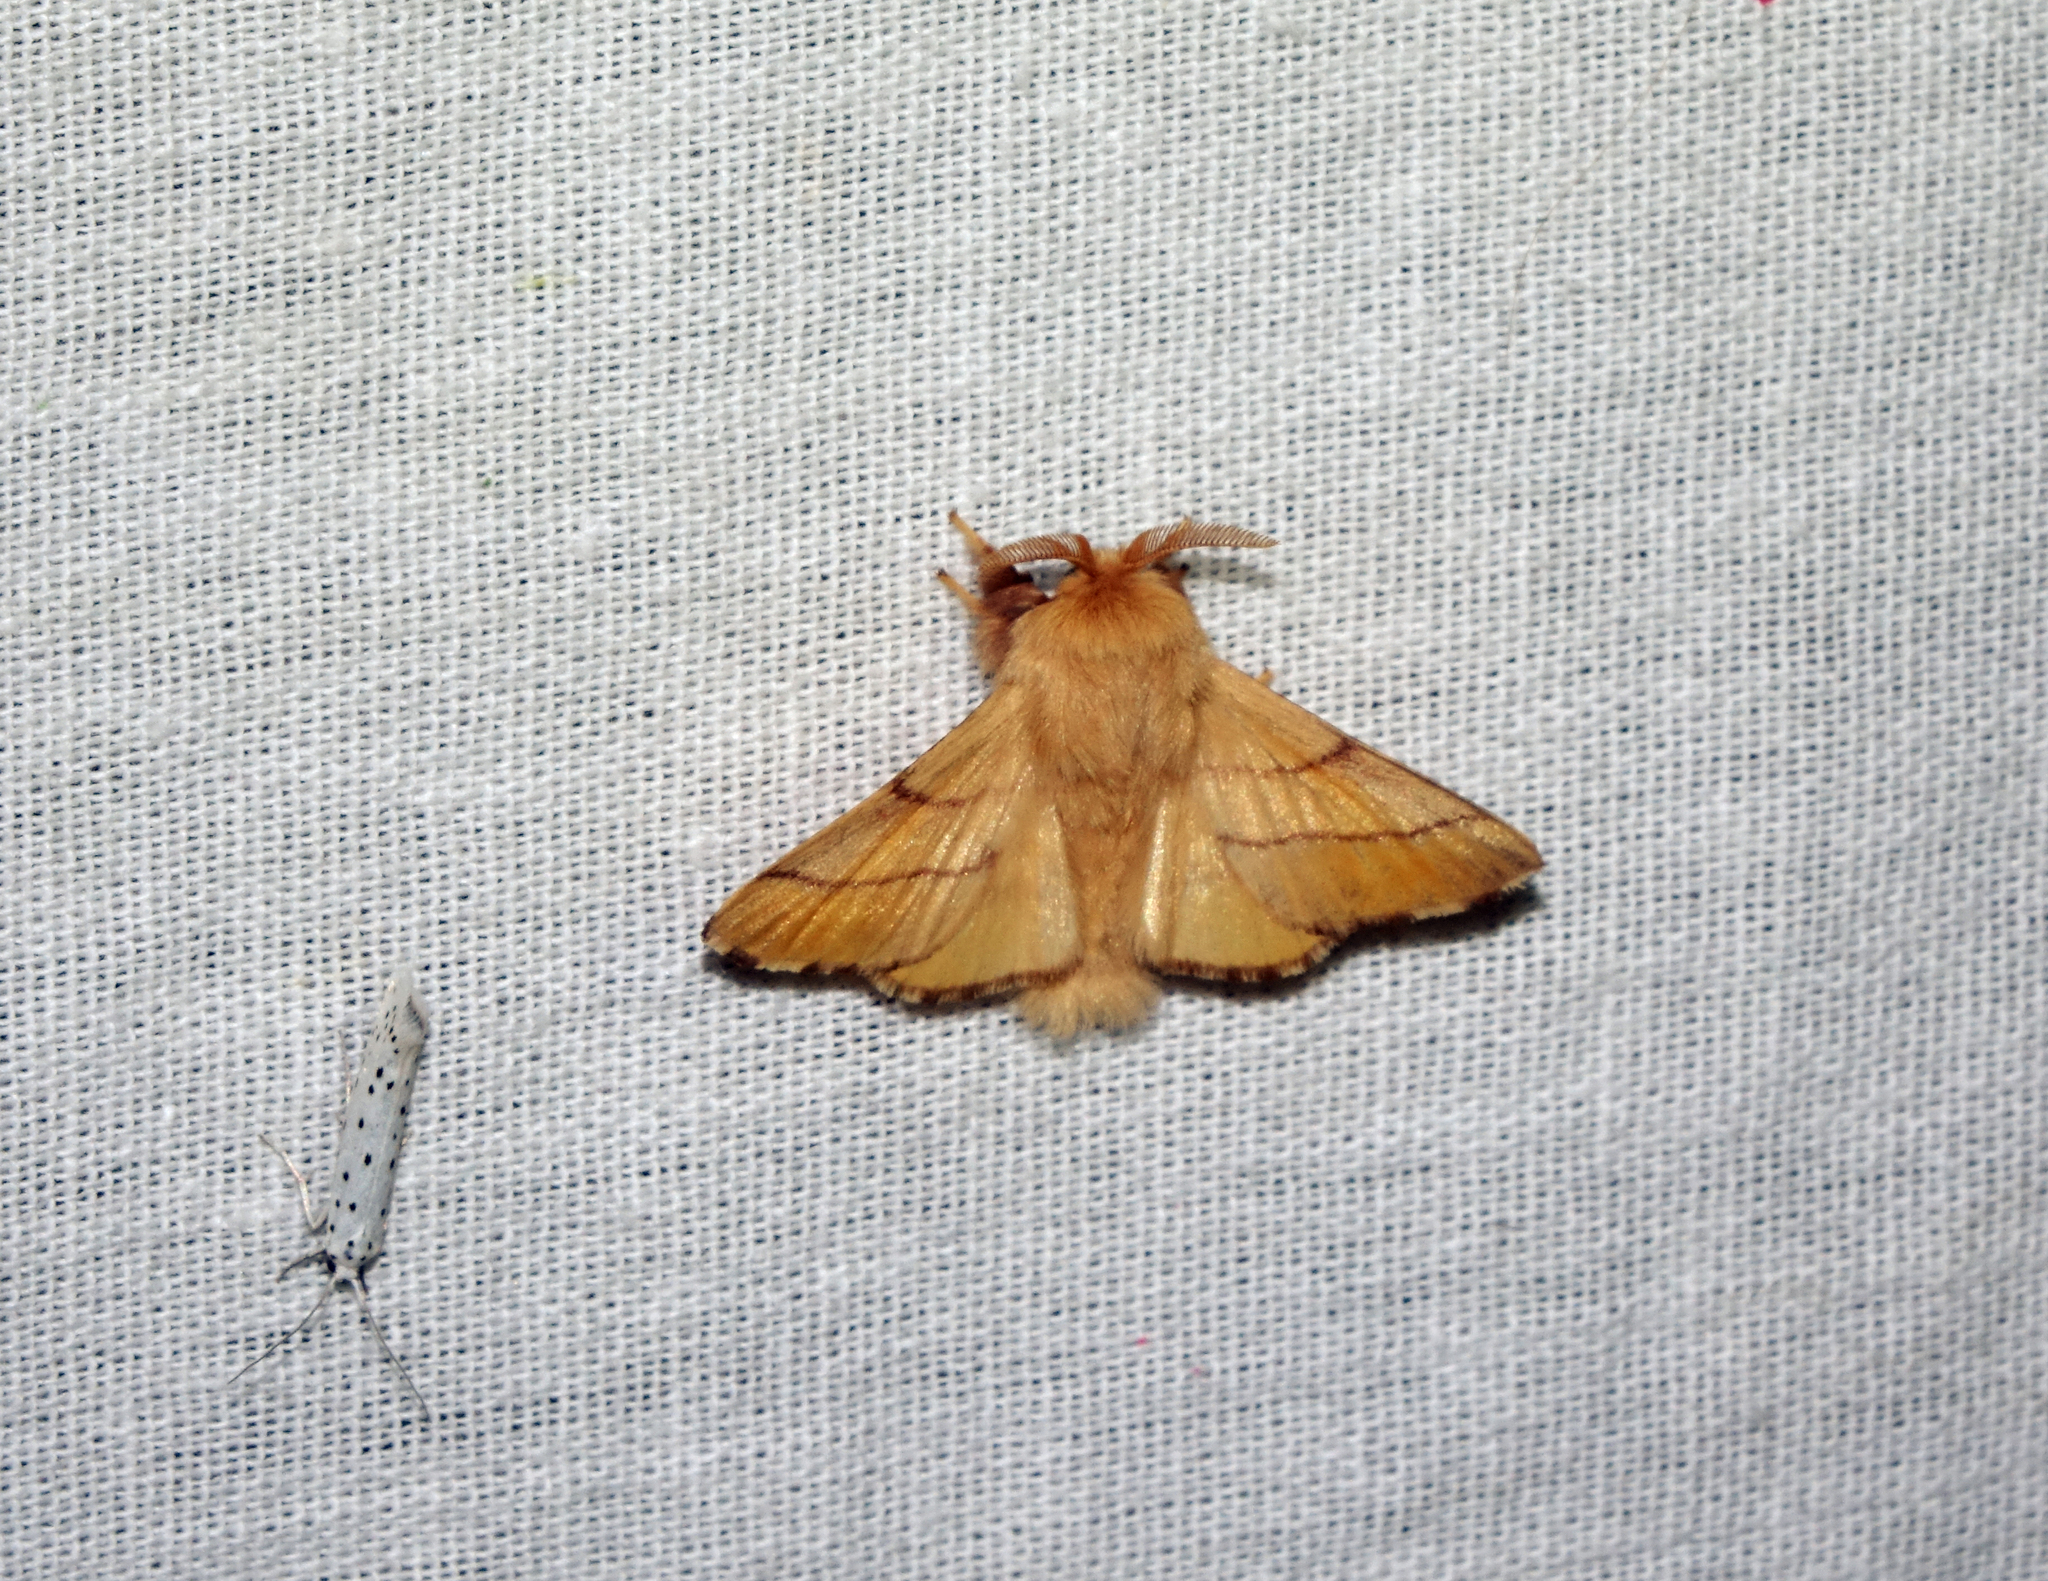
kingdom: Animalia
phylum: Arthropoda
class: Insecta
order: Lepidoptera
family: Lasiocampidae
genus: Malacosoma
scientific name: Malacosoma neustria
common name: The lackey
